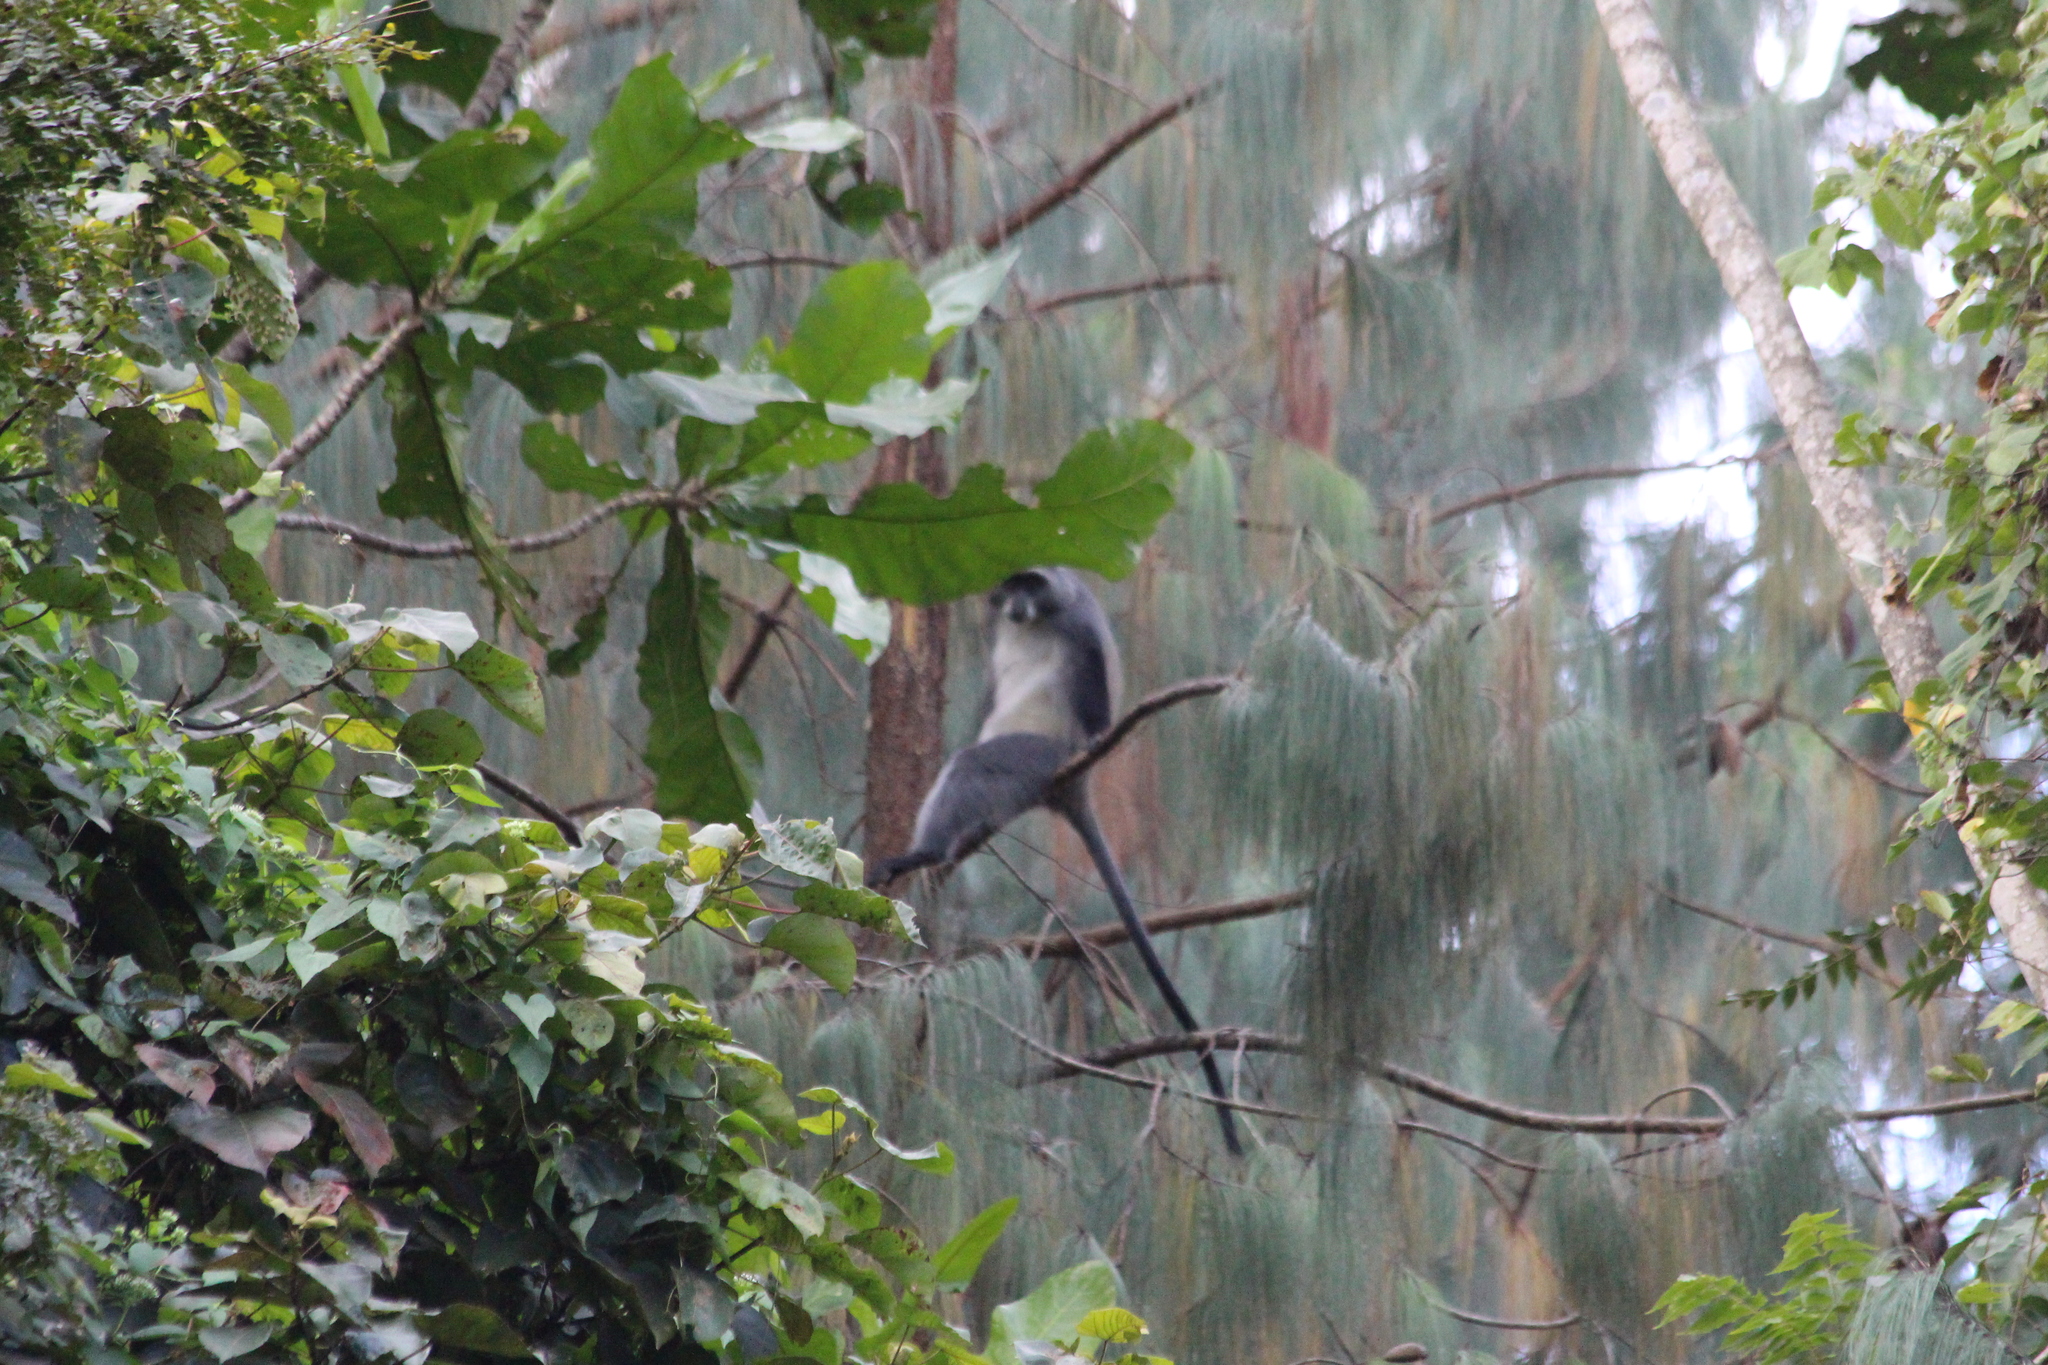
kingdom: Animalia
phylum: Chordata
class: Mammalia
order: Primates
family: Cercopithecidae
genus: Cercopithecus
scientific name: Cercopithecus mitis
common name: Blue monkey
